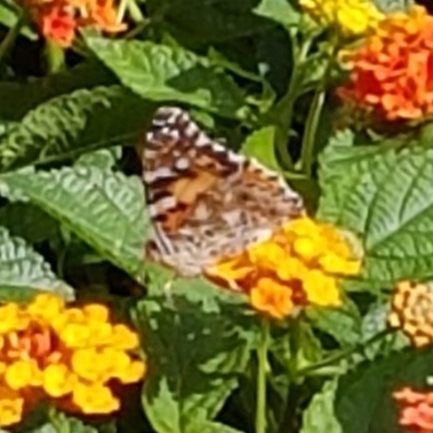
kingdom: Animalia
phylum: Arthropoda
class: Insecta
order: Lepidoptera
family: Nymphalidae
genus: Vanessa
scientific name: Vanessa cardui
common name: Painted lady
